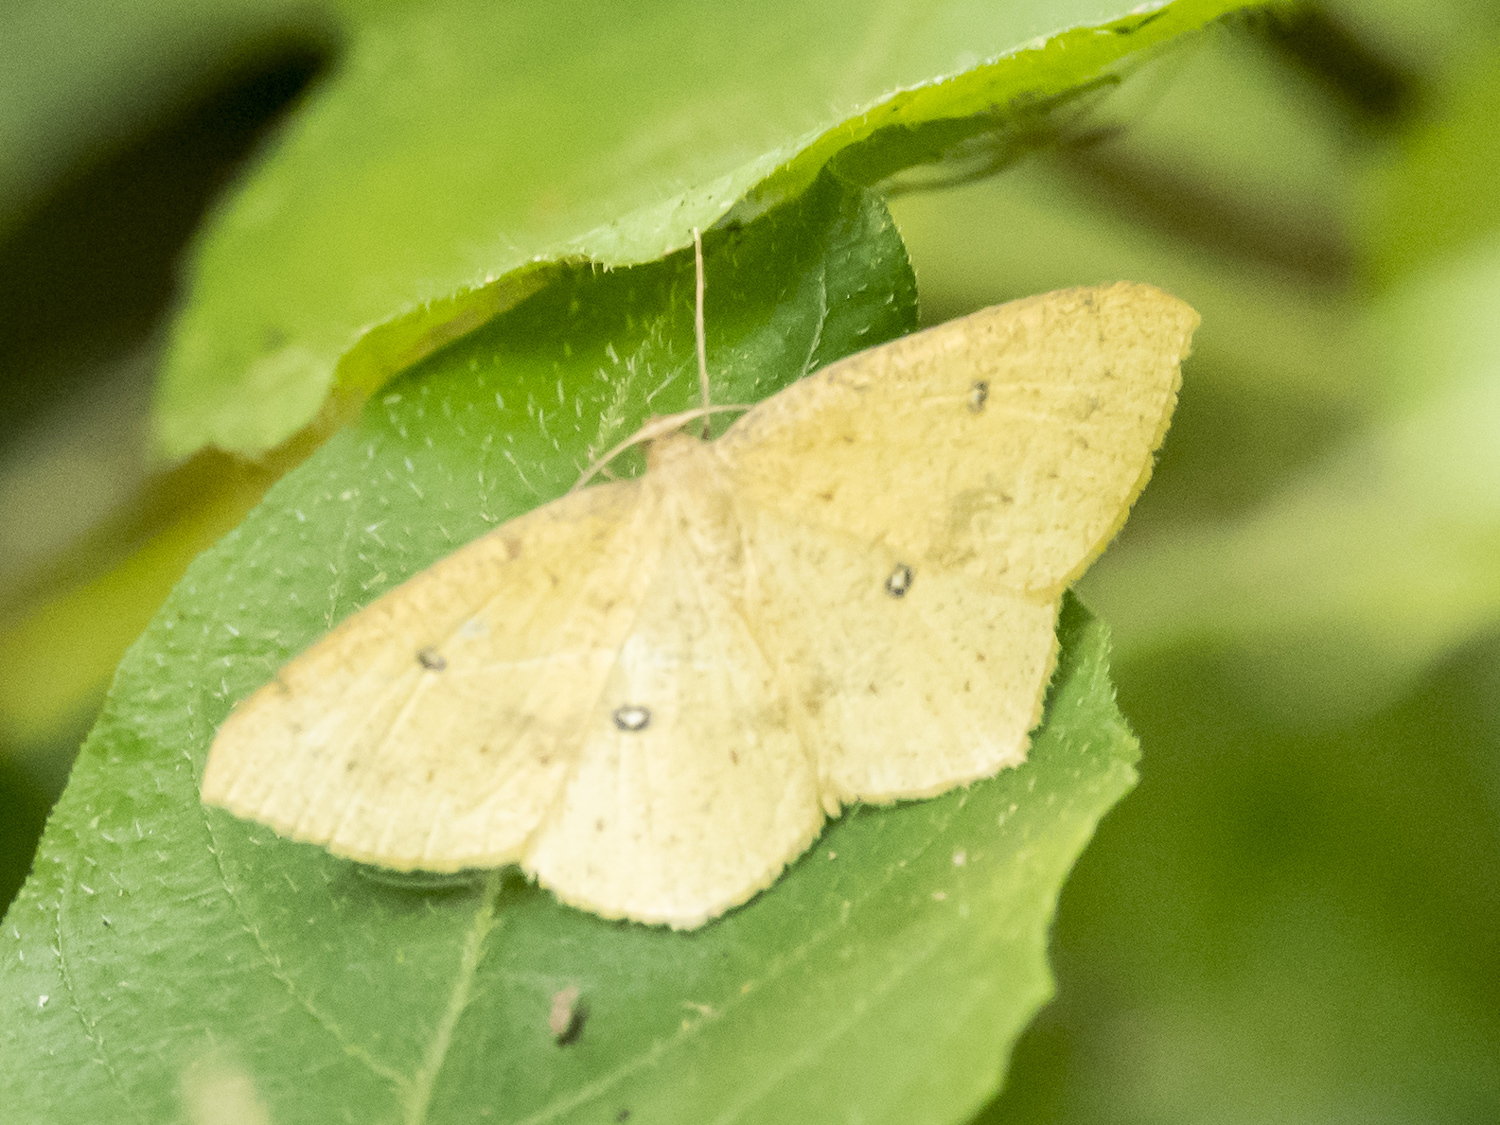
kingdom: Animalia
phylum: Arthropoda
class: Insecta
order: Lepidoptera
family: Geometridae
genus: Palaeaspilates
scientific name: Palaeaspilates Anisephyra ocularia
